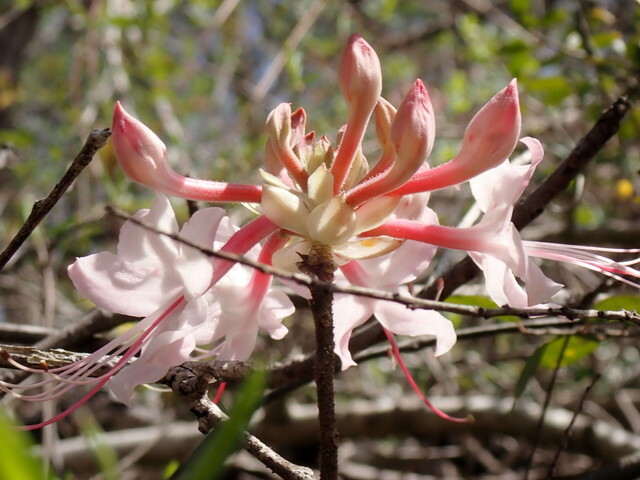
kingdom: Plantae
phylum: Tracheophyta
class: Magnoliopsida
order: Ericales
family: Ericaceae
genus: Rhododendron
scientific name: Rhododendron canescens
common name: Mountain azalea
